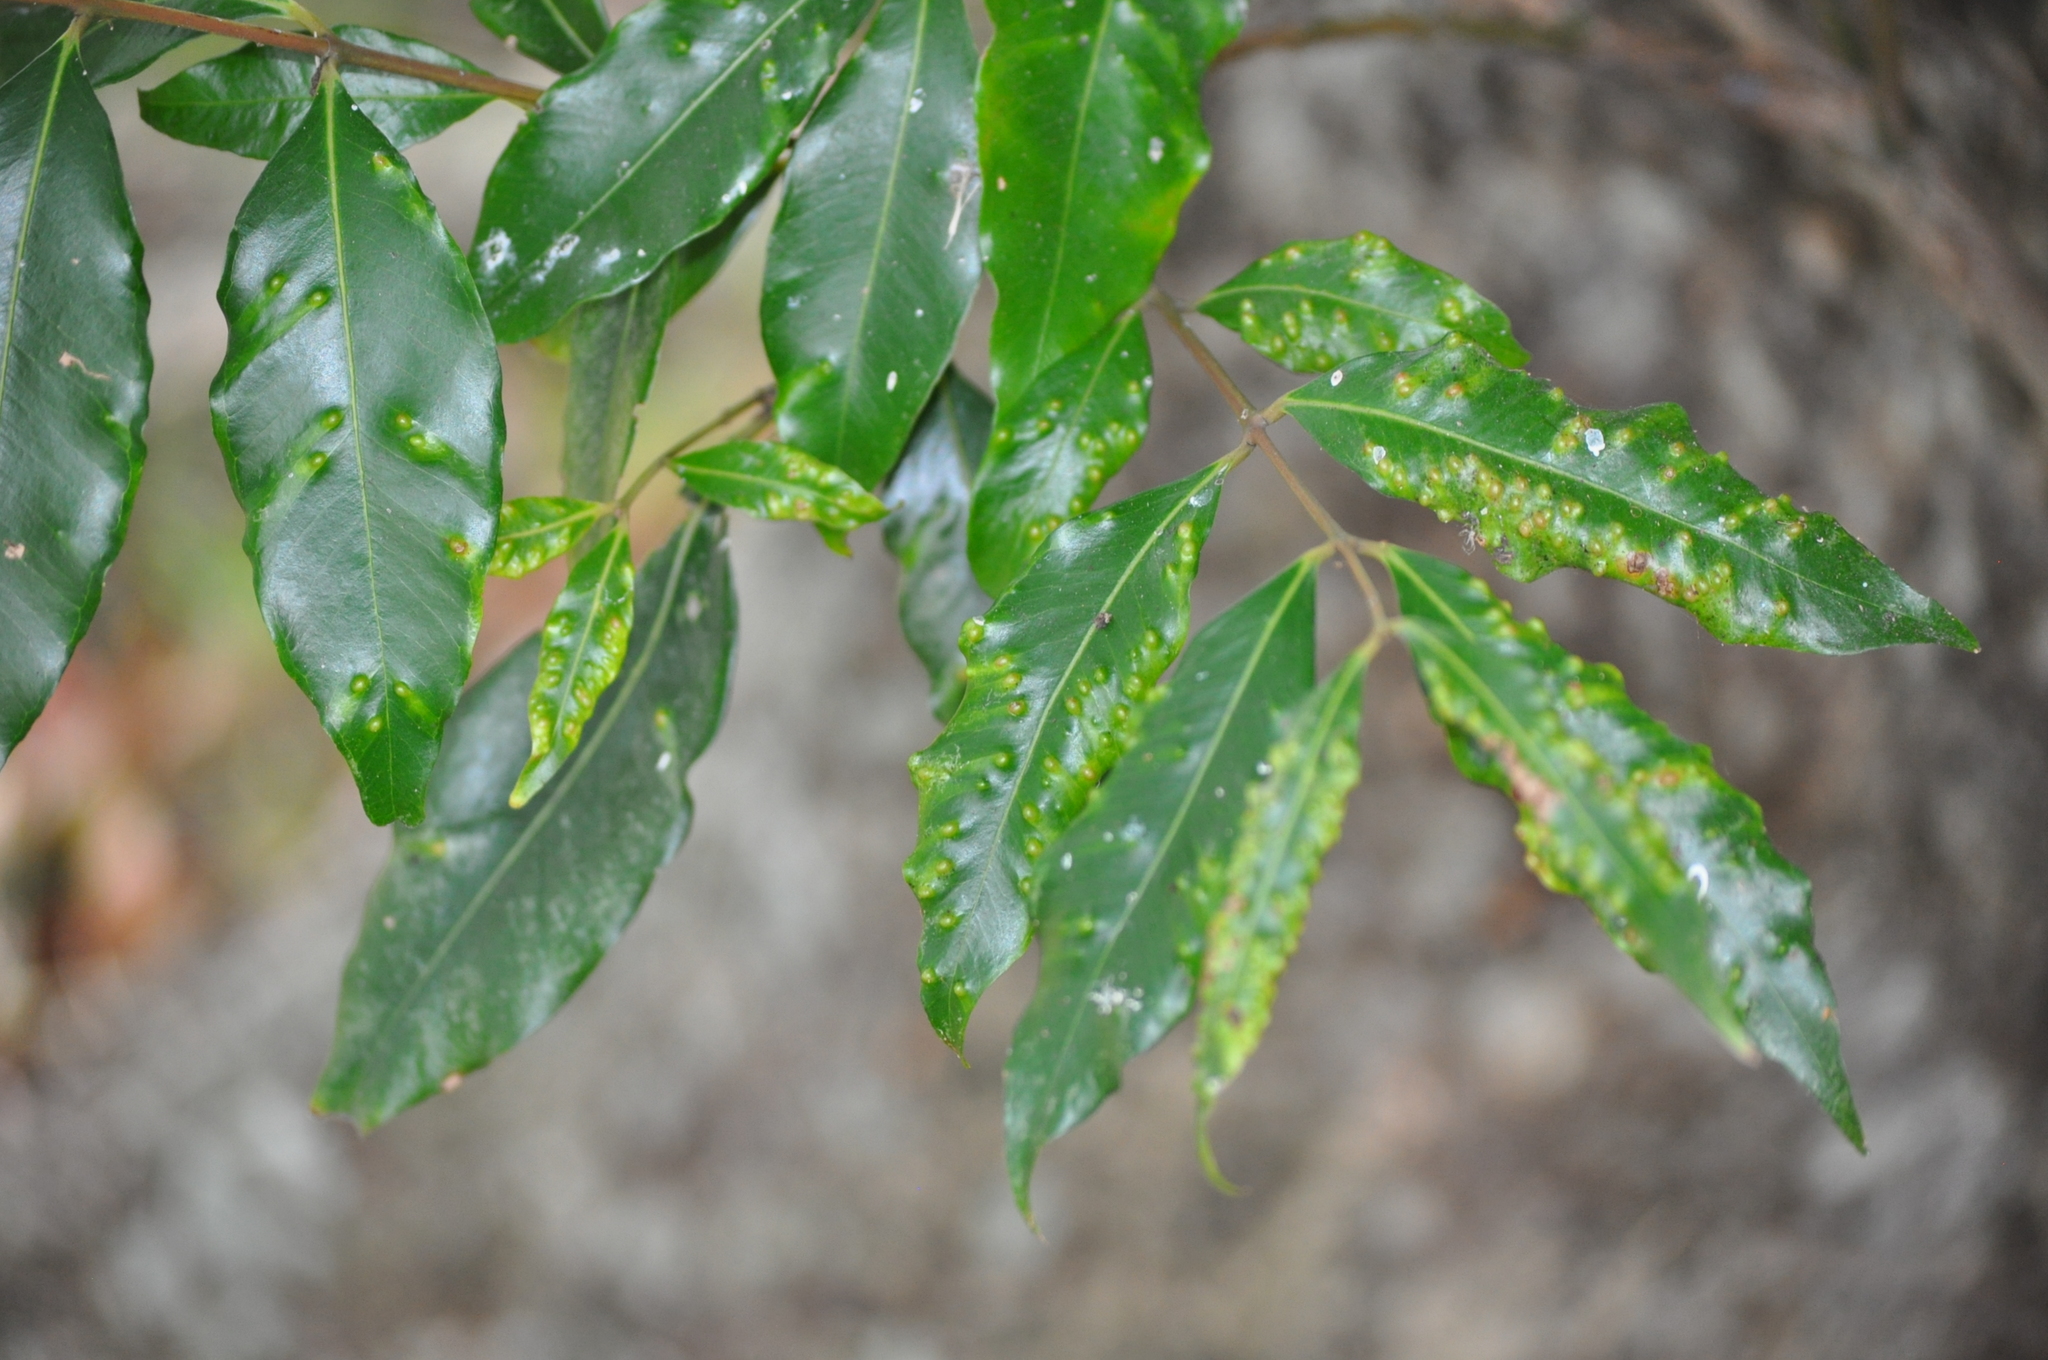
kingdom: Animalia
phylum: Arthropoda
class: Insecta
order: Hemiptera
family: Triozidae
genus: Trioza
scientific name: Trioza adventicia
